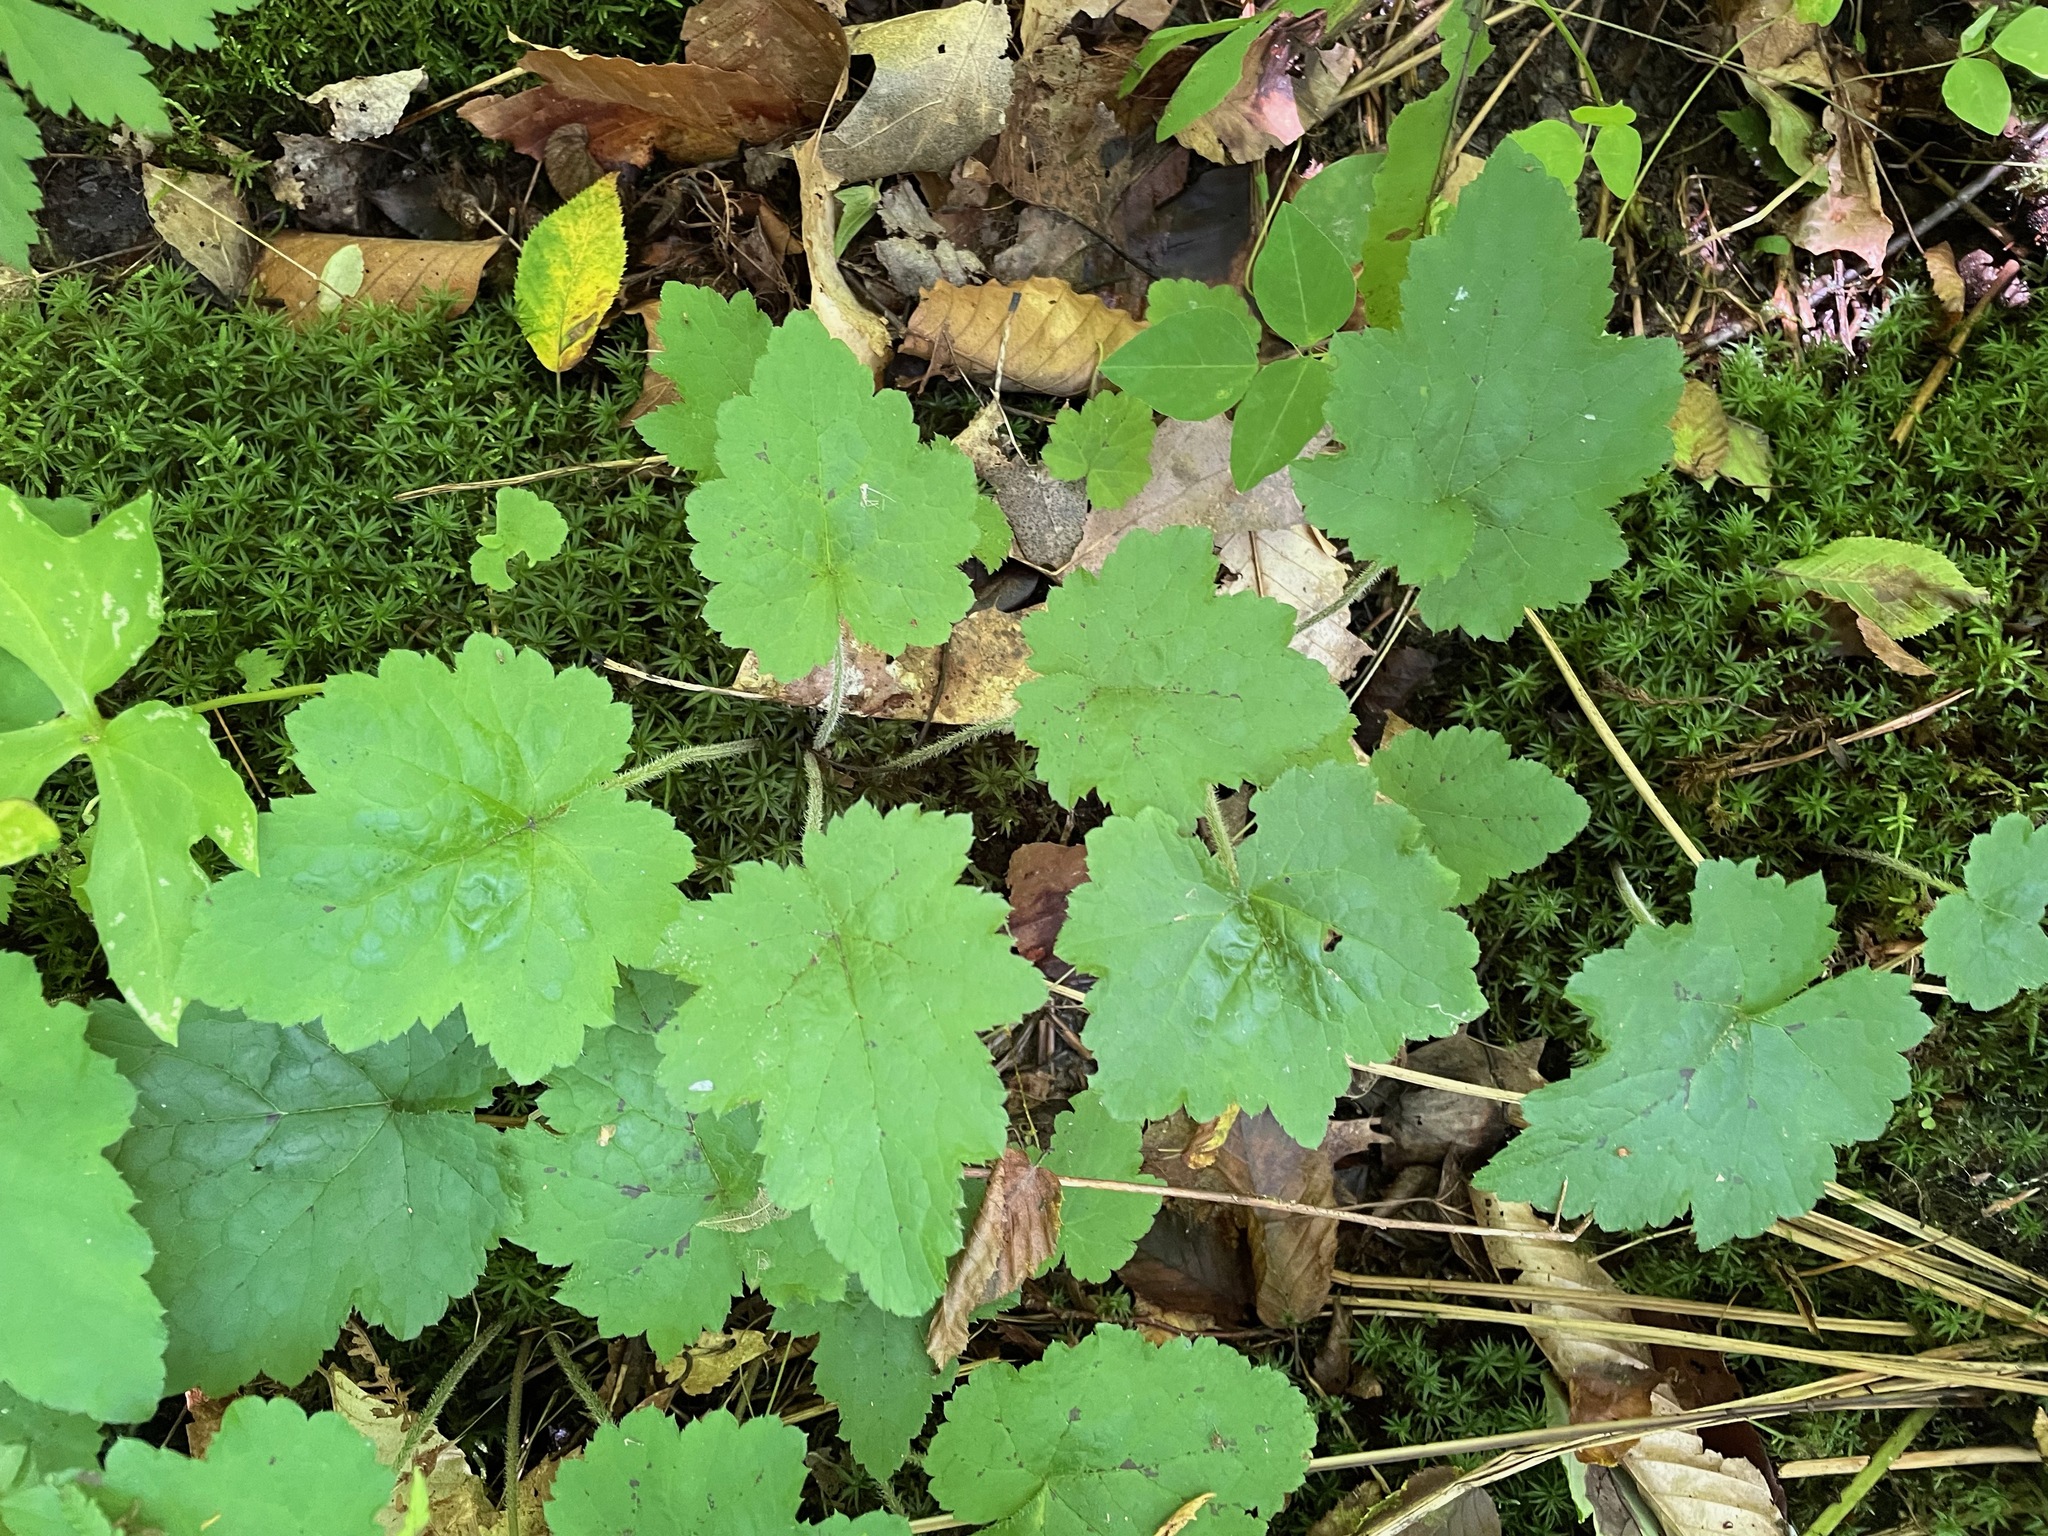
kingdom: Plantae
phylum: Tracheophyta
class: Magnoliopsida
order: Saxifragales
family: Saxifragaceae
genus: Tiarella
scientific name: Tiarella stolonifera
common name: Stoloniferous foamflower
